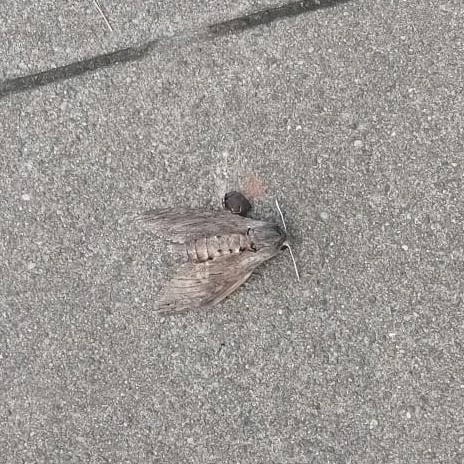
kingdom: Animalia
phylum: Arthropoda
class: Insecta
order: Lepidoptera
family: Sphingidae
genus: Agrius
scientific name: Agrius convolvuli
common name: Convolvulus hawkmoth
